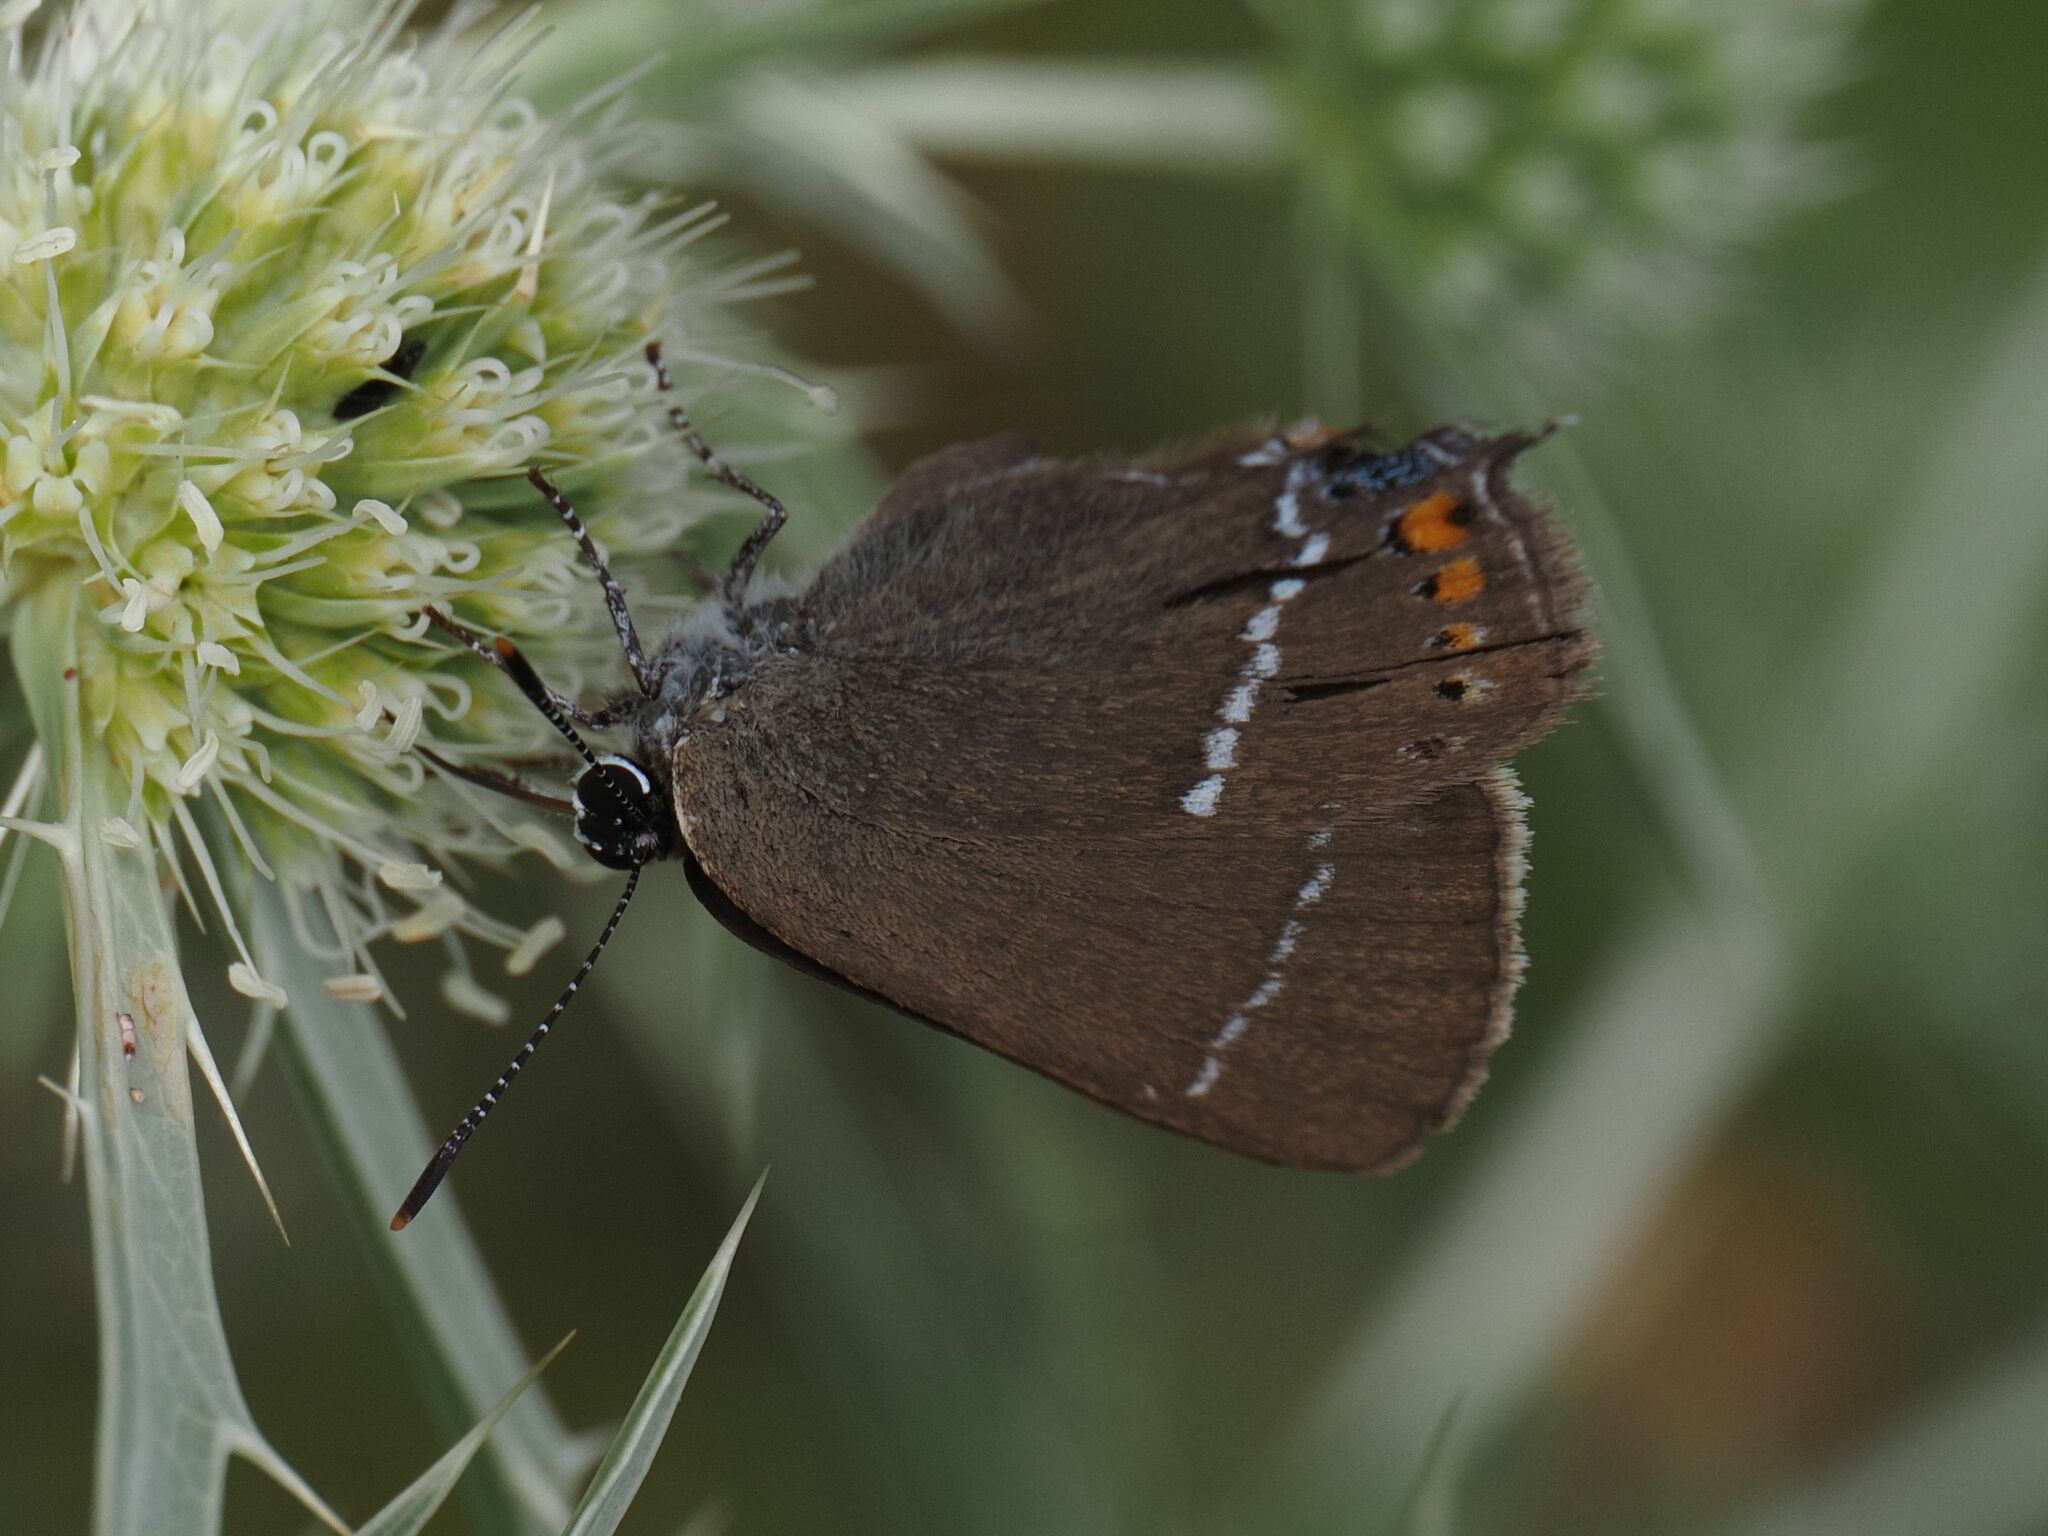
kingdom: Animalia
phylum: Arthropoda
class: Insecta
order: Lepidoptera
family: Lycaenidae
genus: Tuttiola
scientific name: Tuttiola spini
